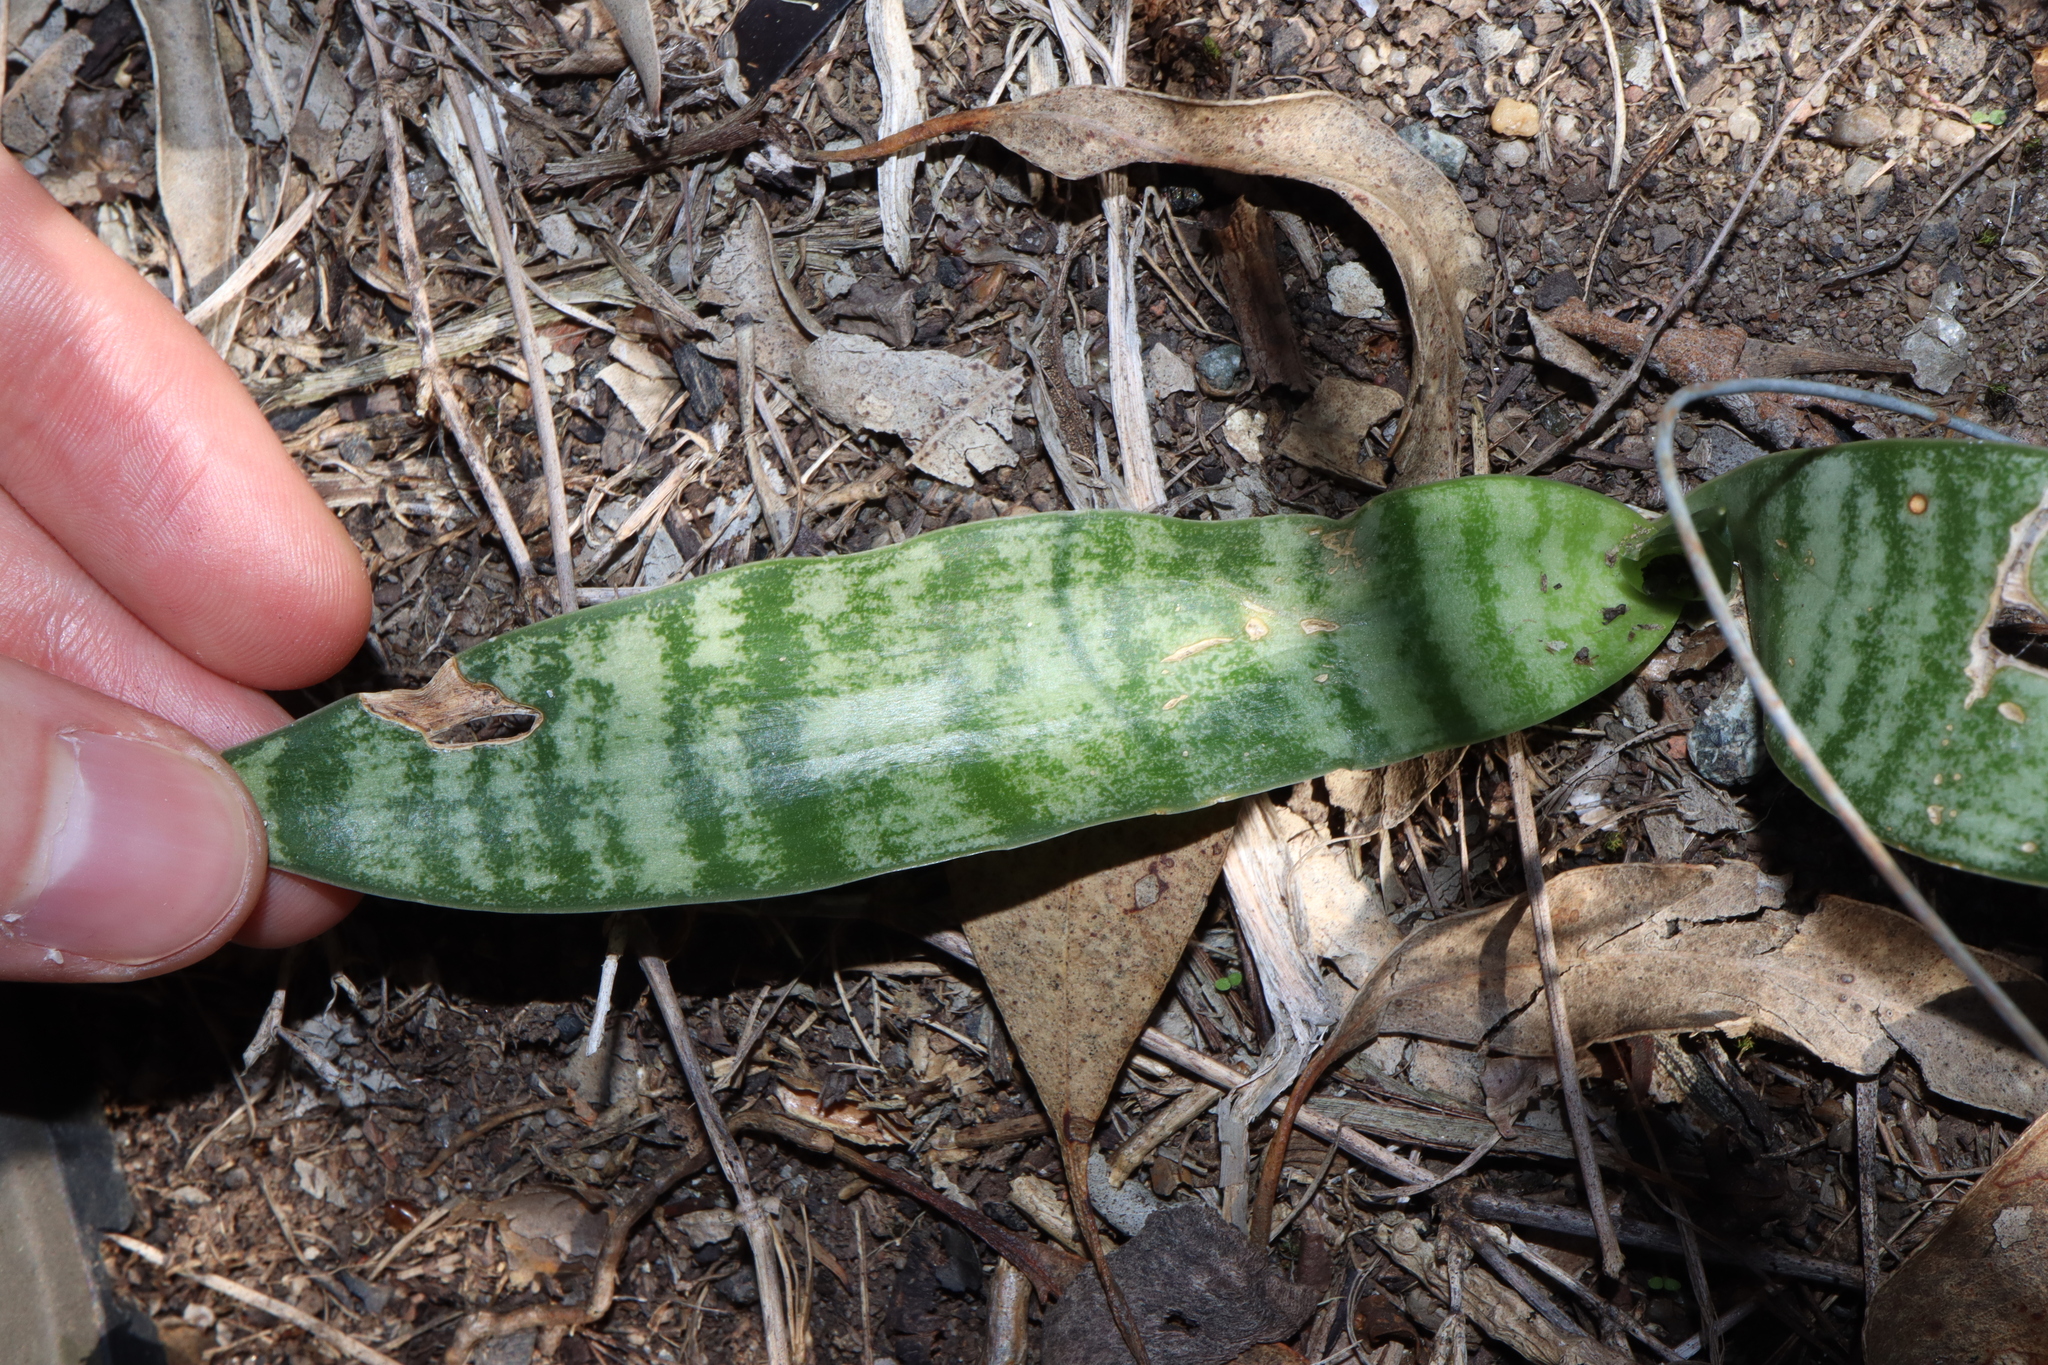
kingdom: Plantae
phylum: Tracheophyta
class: Liliopsida
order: Asparagales
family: Asparagaceae
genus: Dracaena
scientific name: Dracaena trifasciata
